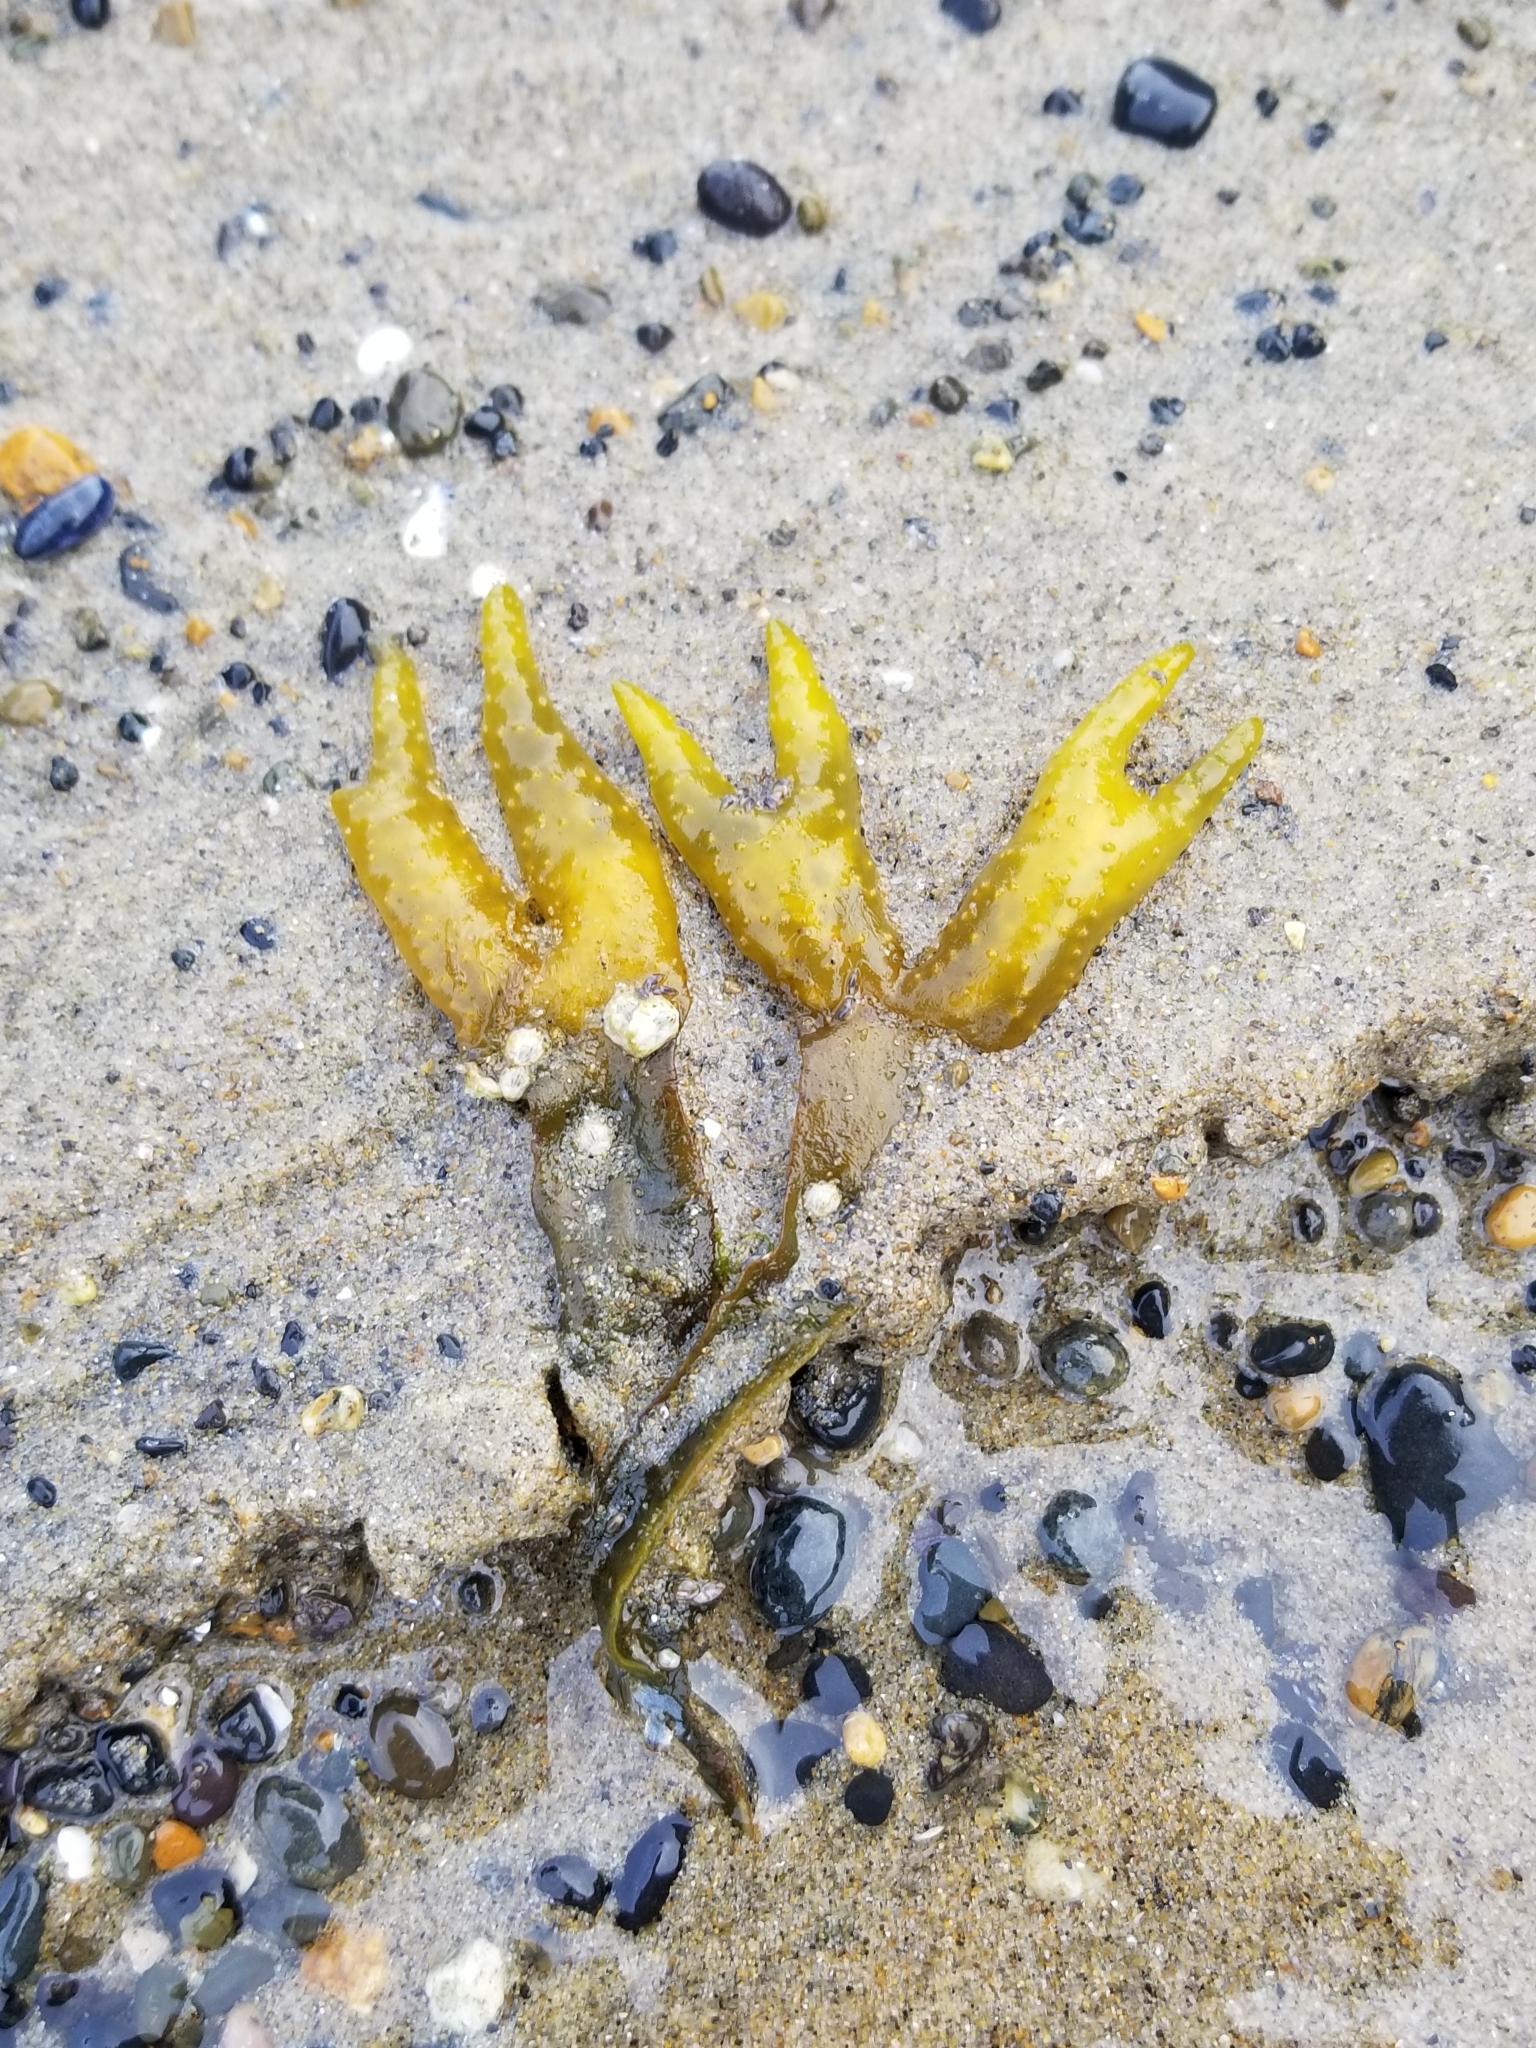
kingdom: Chromista
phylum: Ochrophyta
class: Phaeophyceae
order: Fucales
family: Fucaceae
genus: Fucus
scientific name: Fucus distichus
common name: Rockweed
